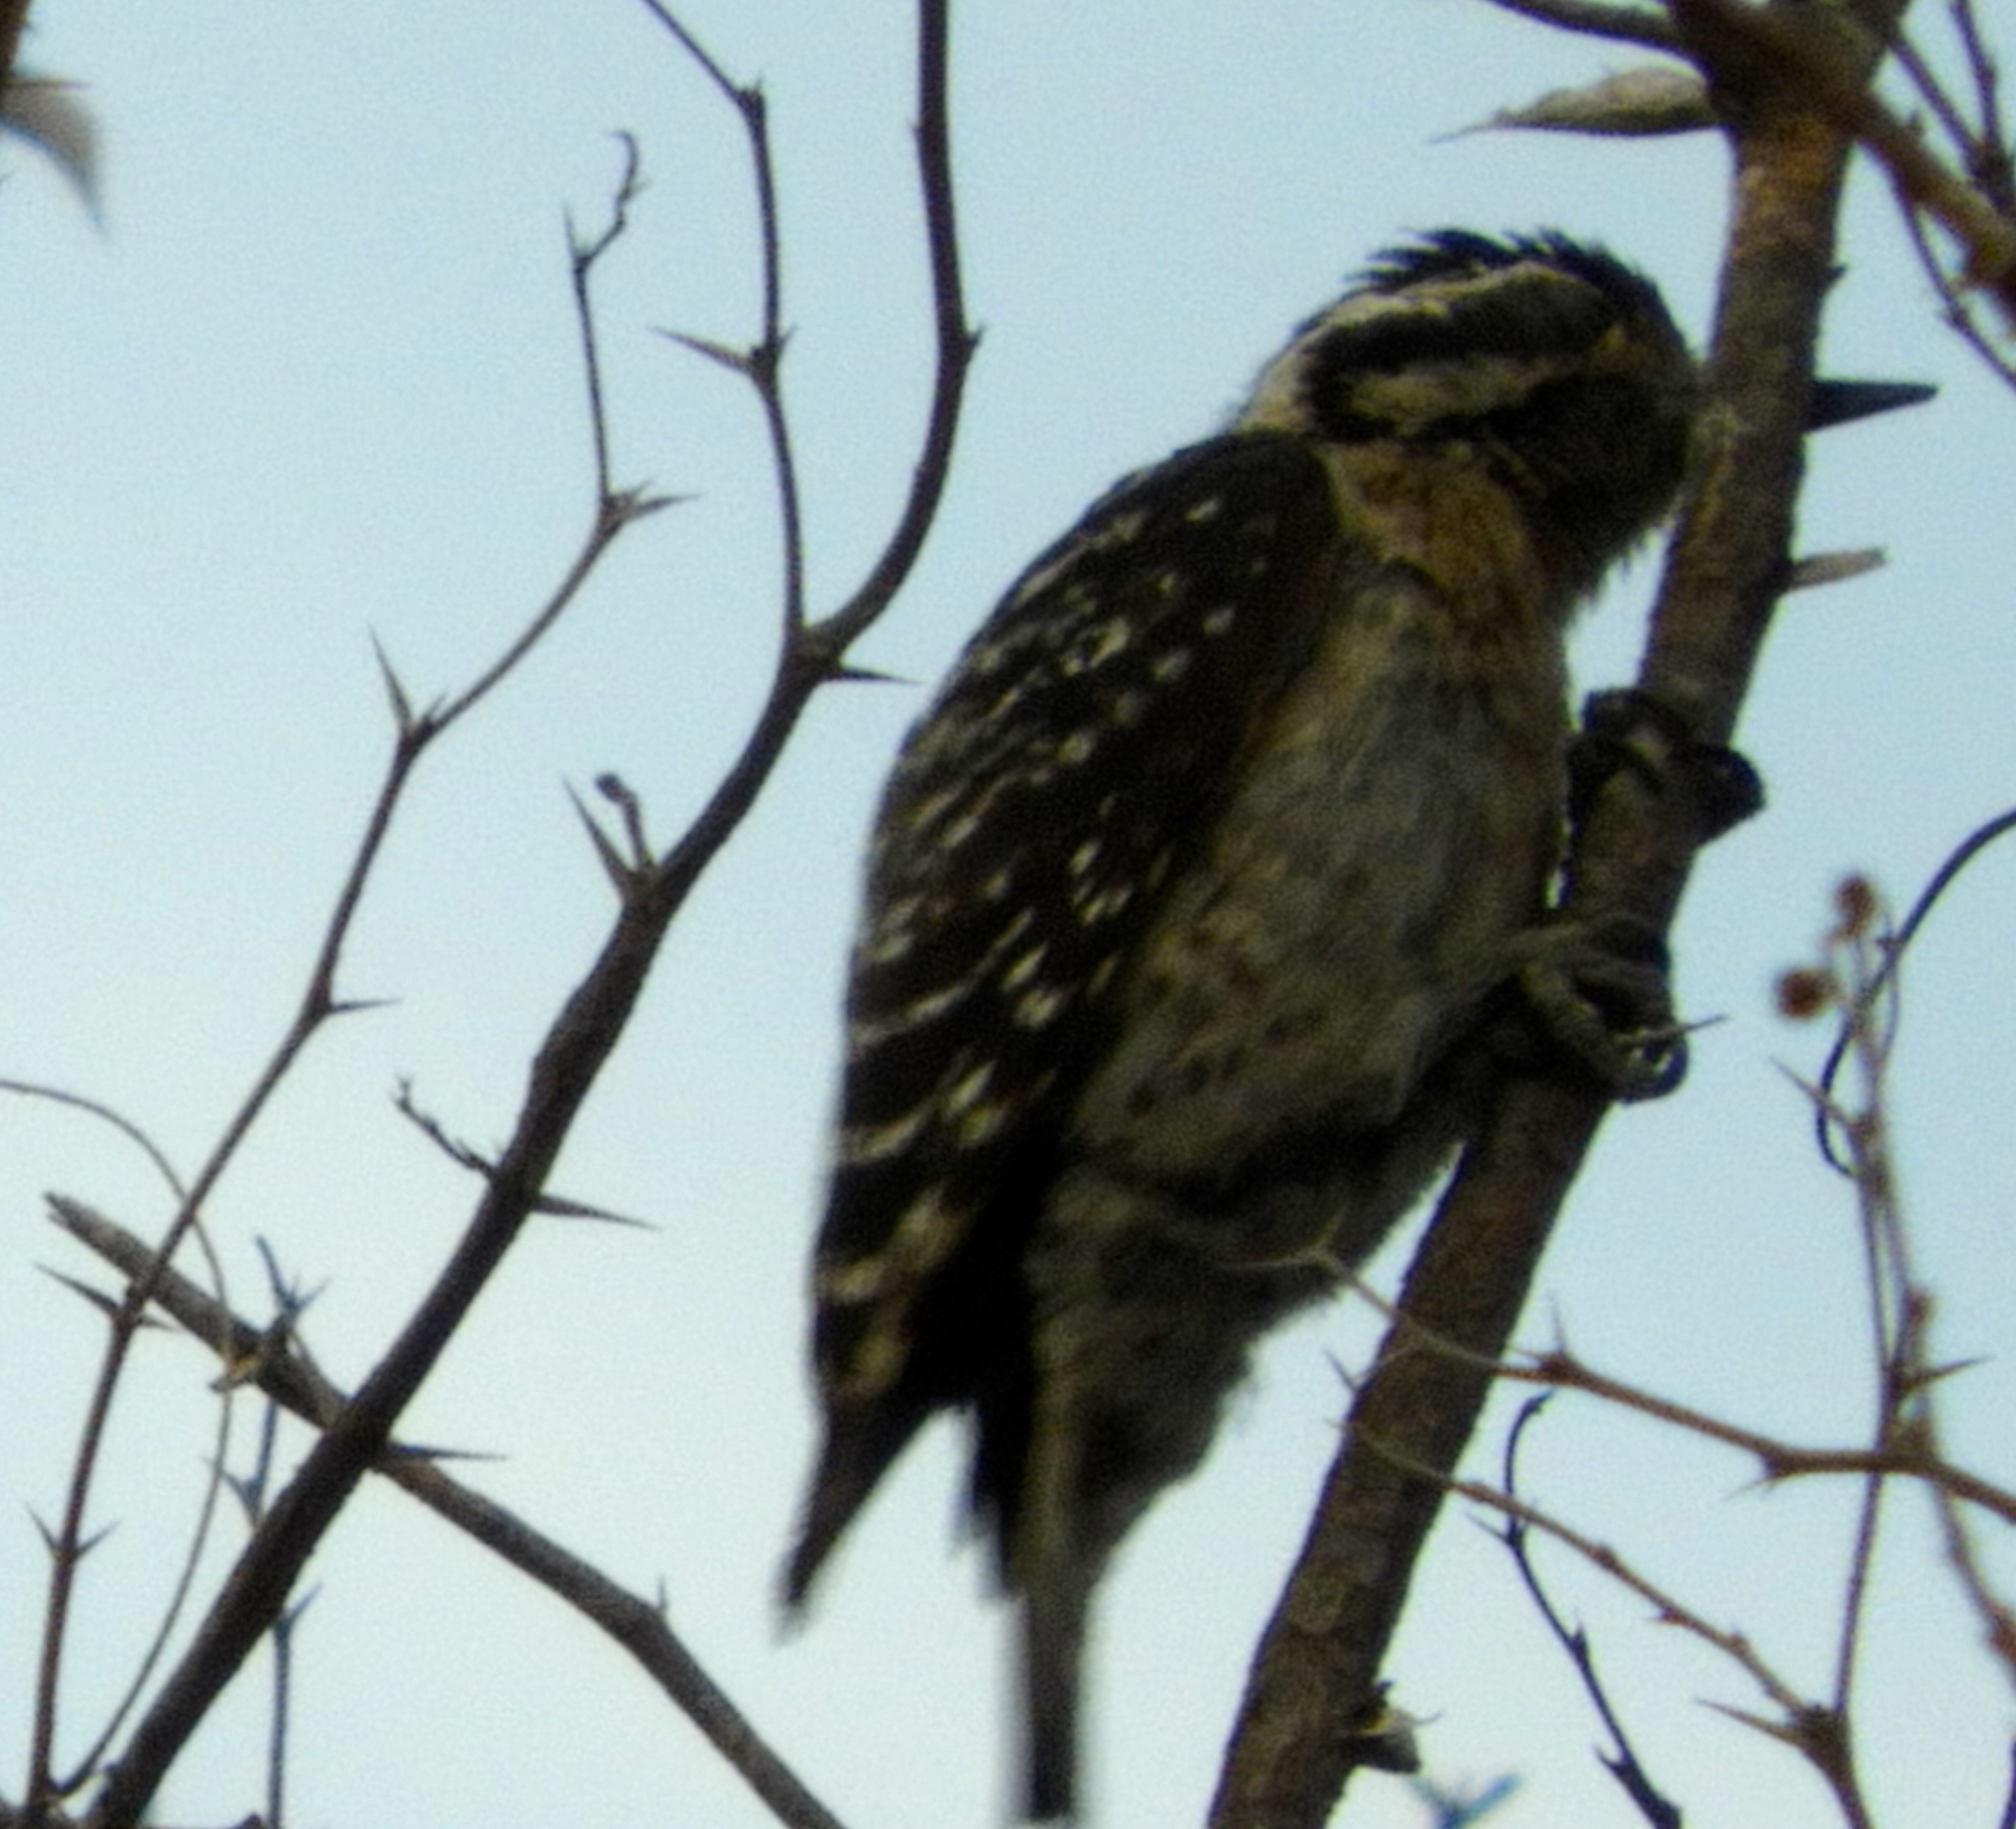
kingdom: Animalia
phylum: Chordata
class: Aves
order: Piciformes
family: Picidae
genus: Dryobates
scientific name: Dryobates scalaris
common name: Ladder-backed woodpecker
